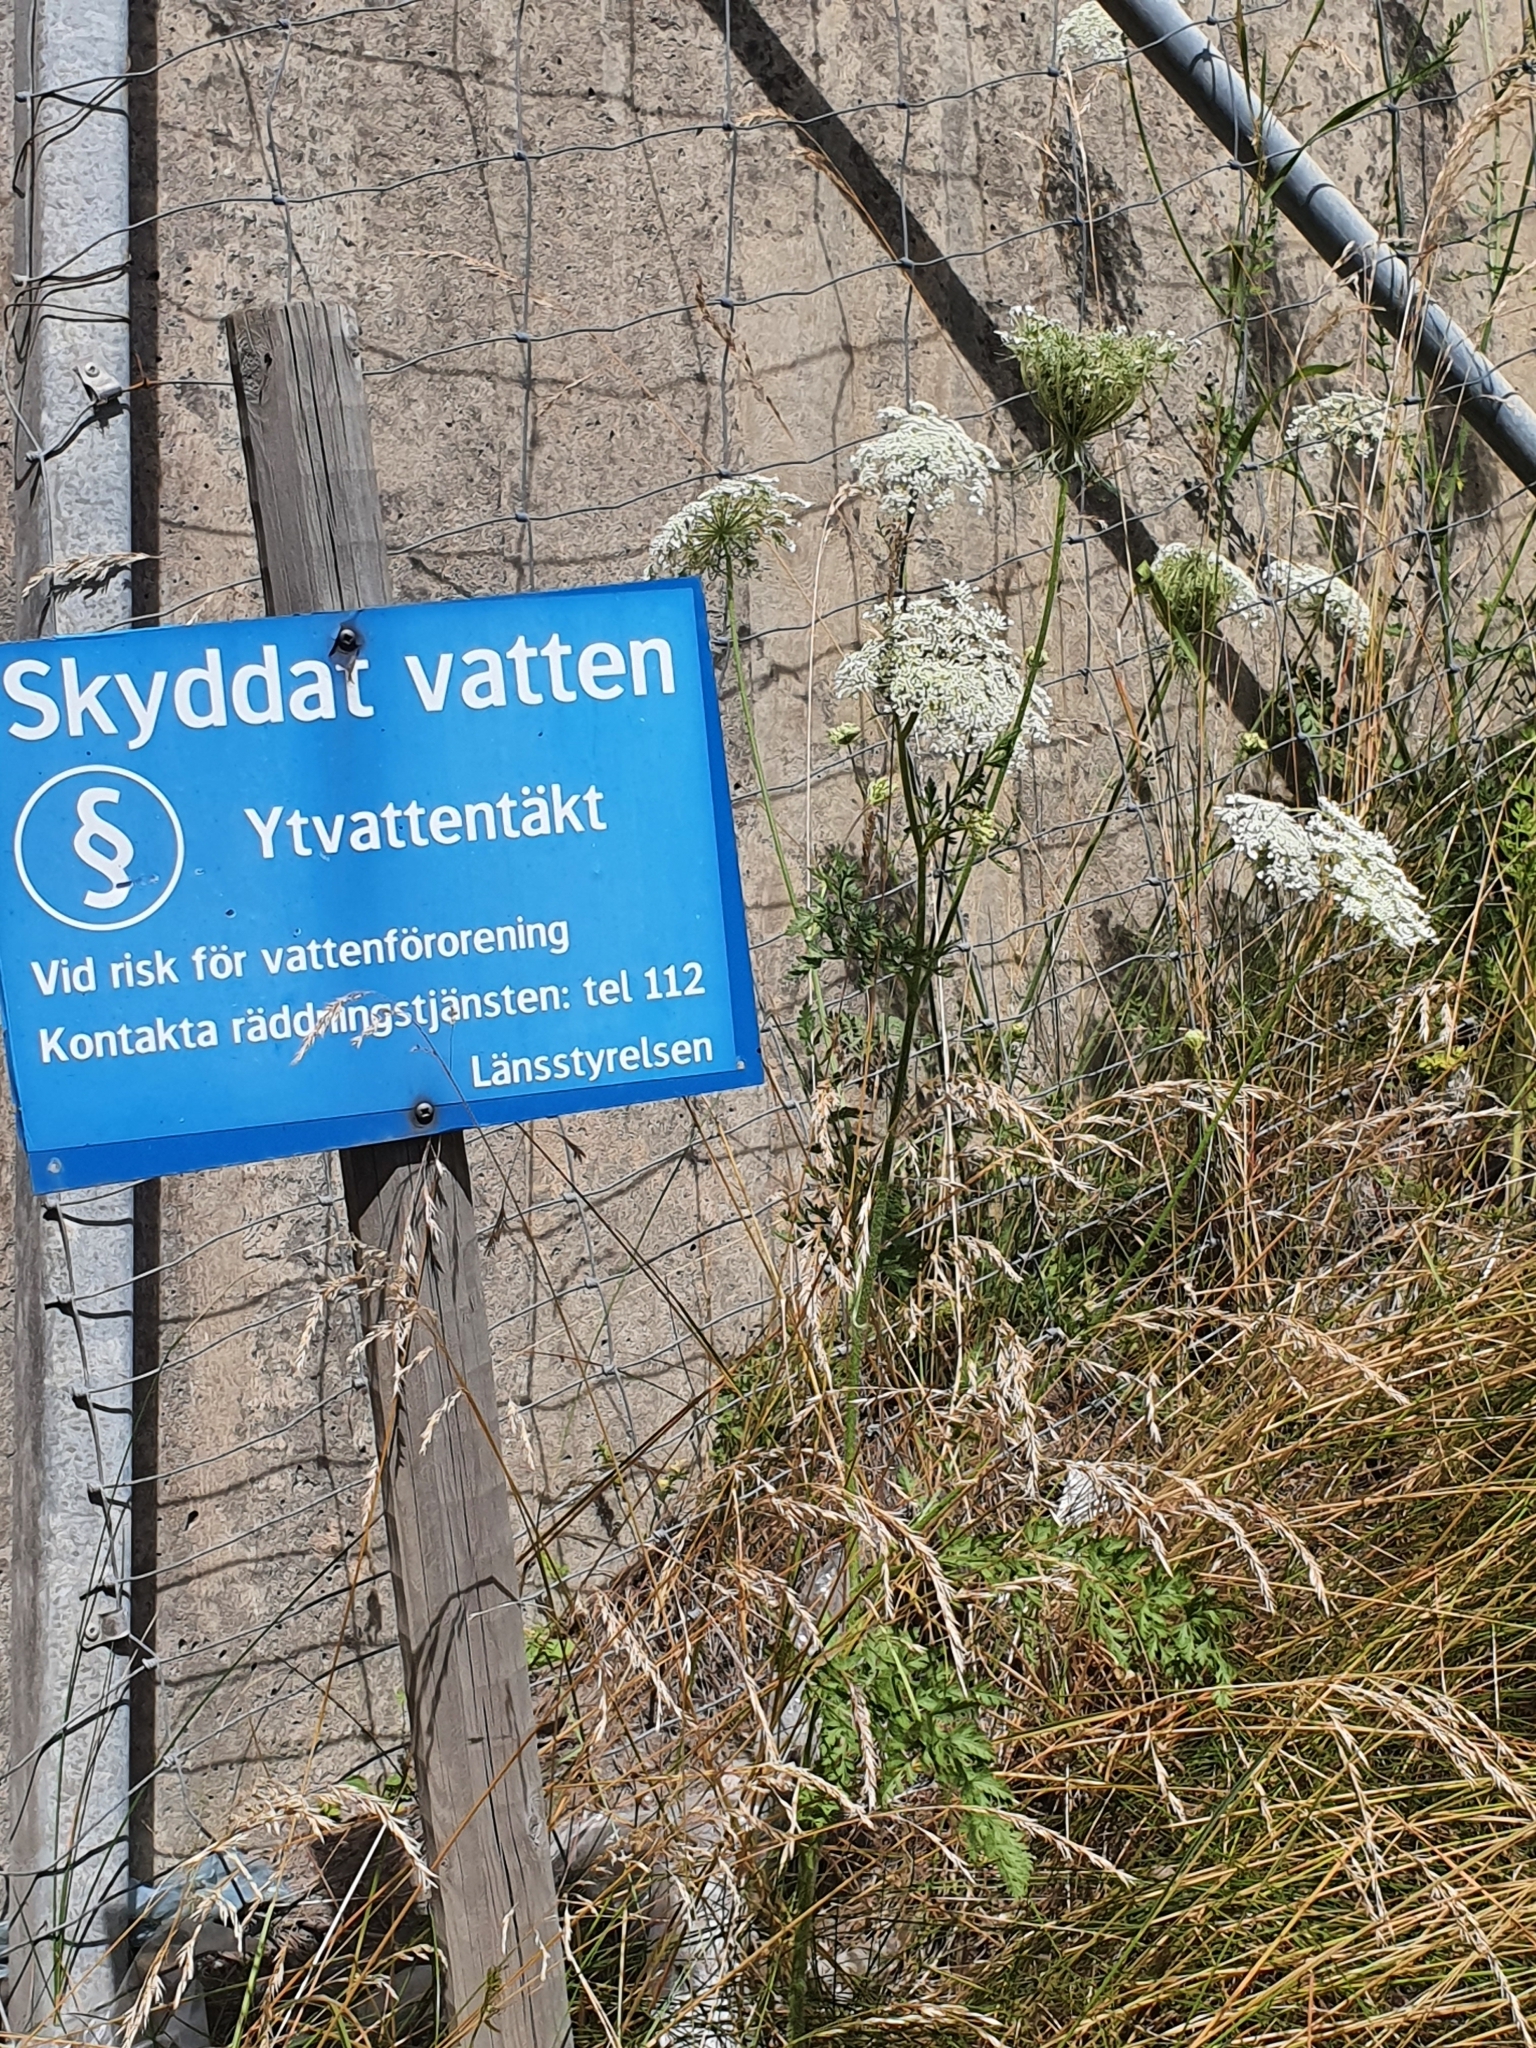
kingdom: Plantae
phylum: Tracheophyta
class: Magnoliopsida
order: Apiales
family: Apiaceae
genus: Daucus
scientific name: Daucus carota
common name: Wild carrot
